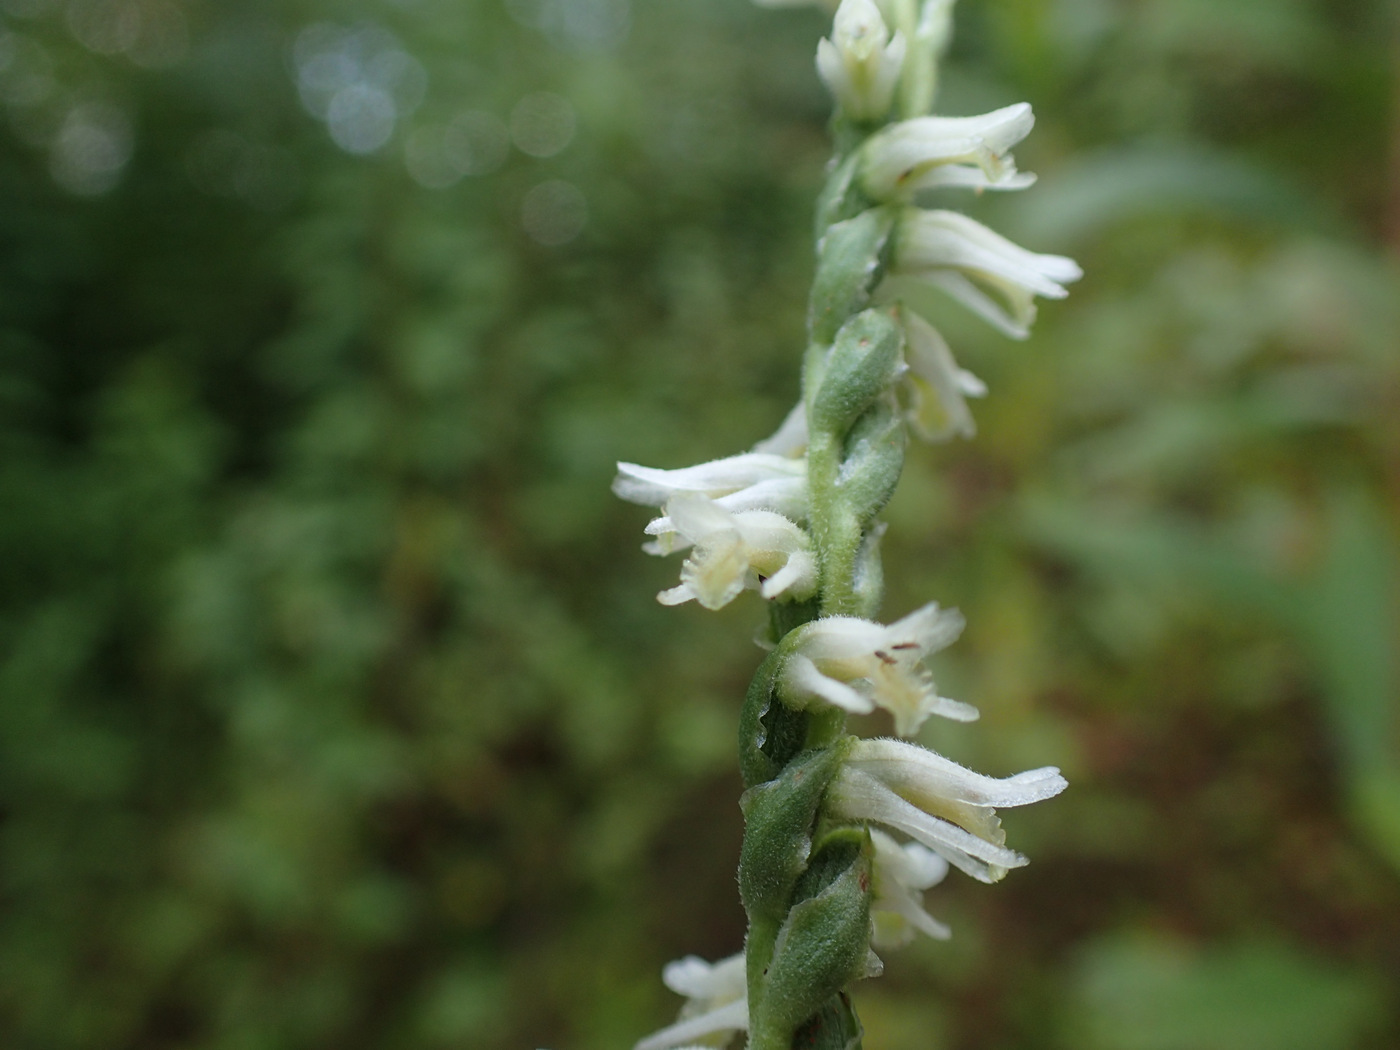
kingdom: Plantae
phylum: Tracheophyta
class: Liliopsida
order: Asparagales
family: Orchidaceae
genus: Spiranthes
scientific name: Spiranthes vernalis
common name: Spring ladies'-tresses
